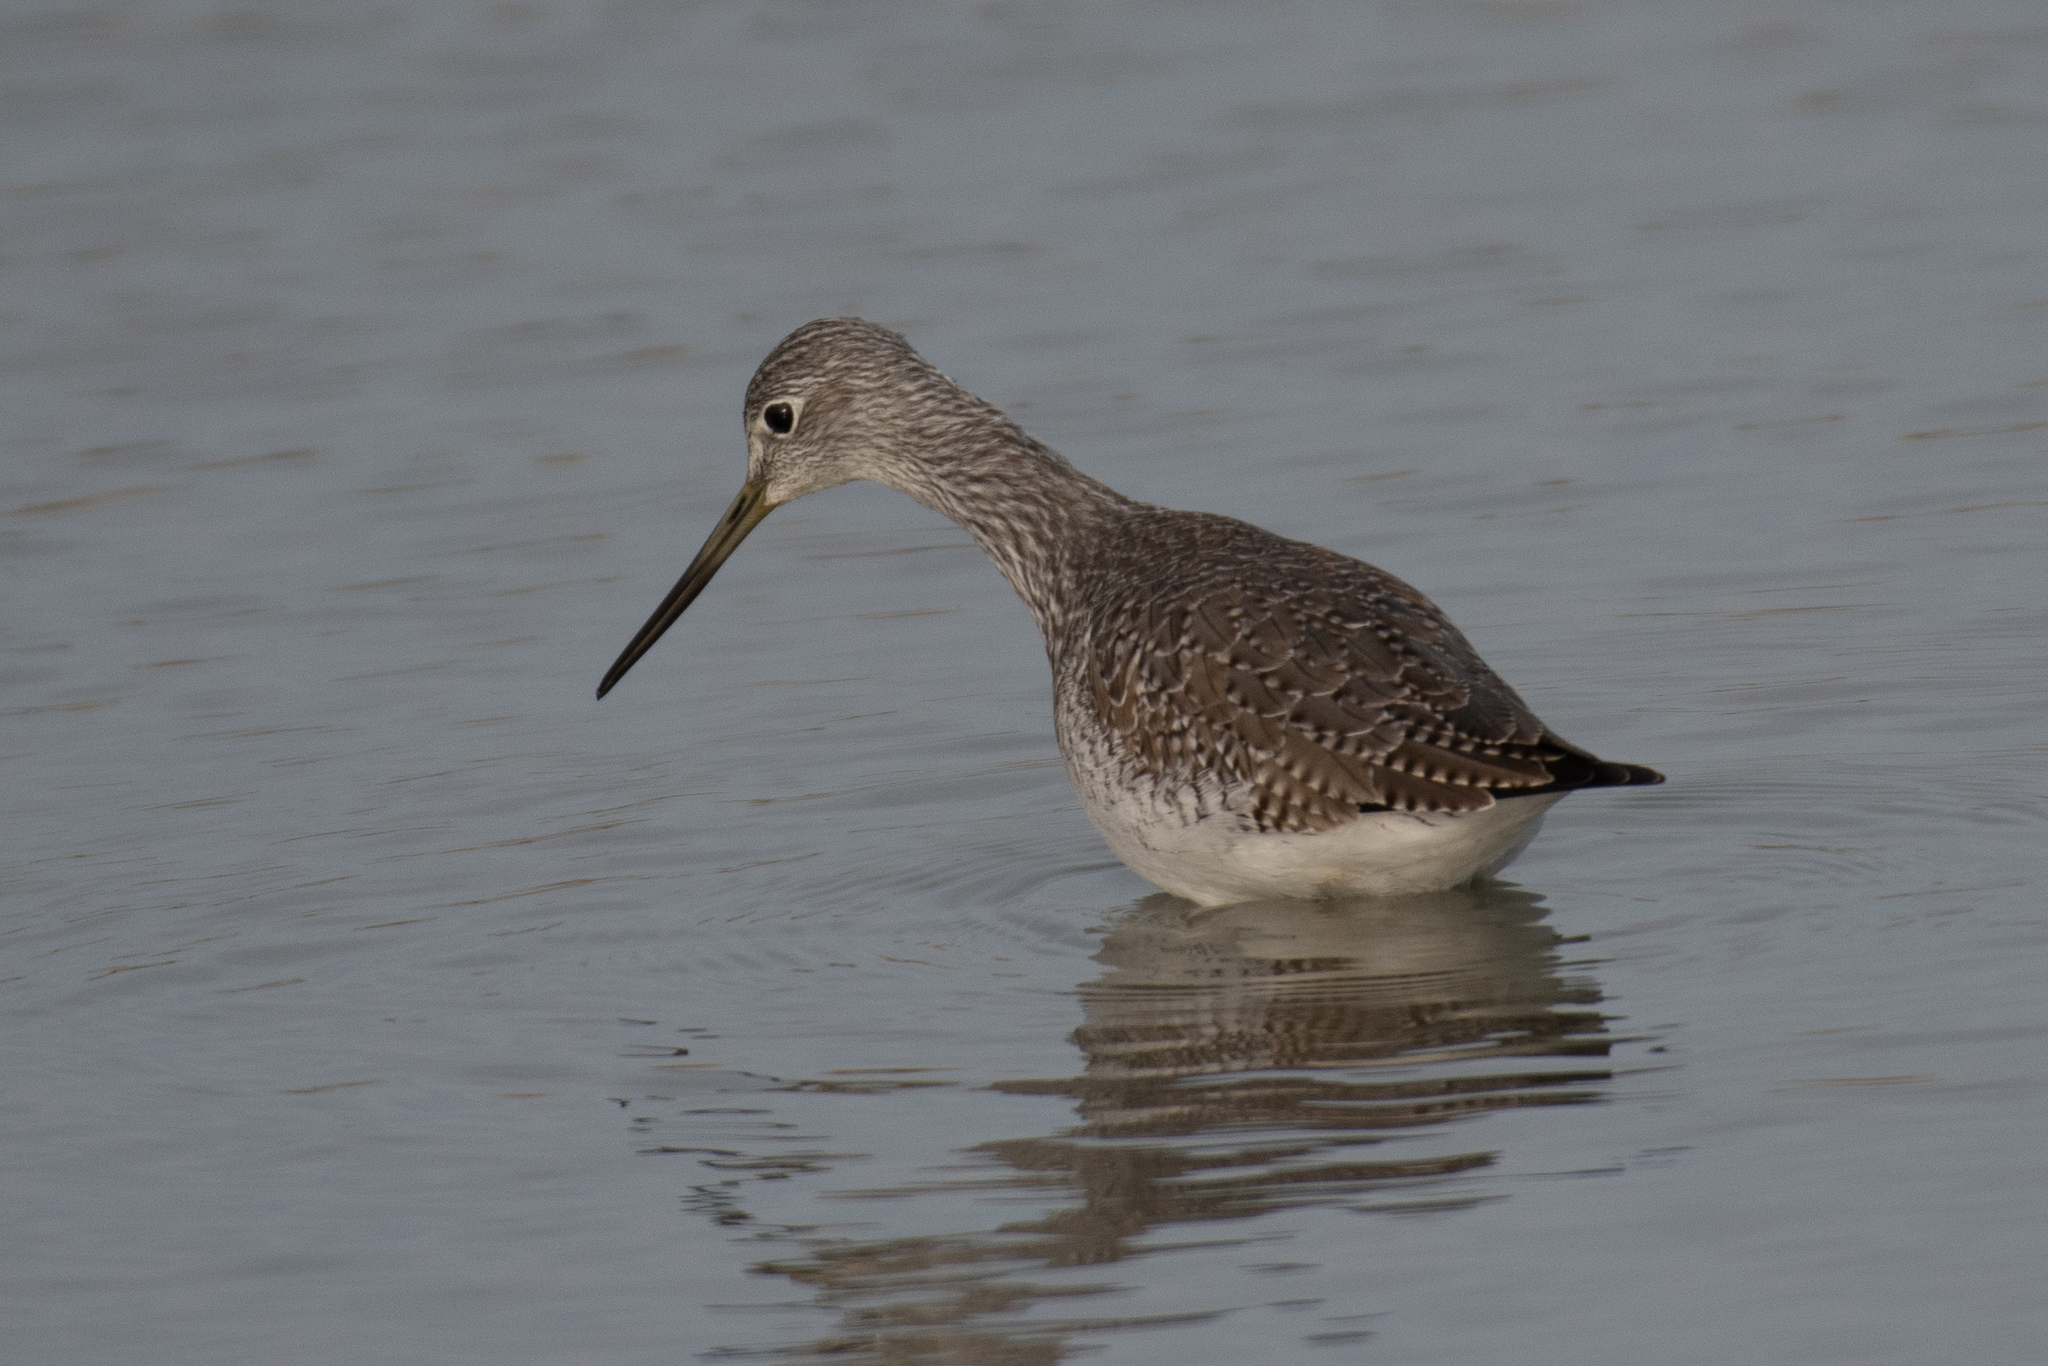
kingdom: Animalia
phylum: Chordata
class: Aves
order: Charadriiformes
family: Scolopacidae
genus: Tringa
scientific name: Tringa melanoleuca
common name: Greater yellowlegs
